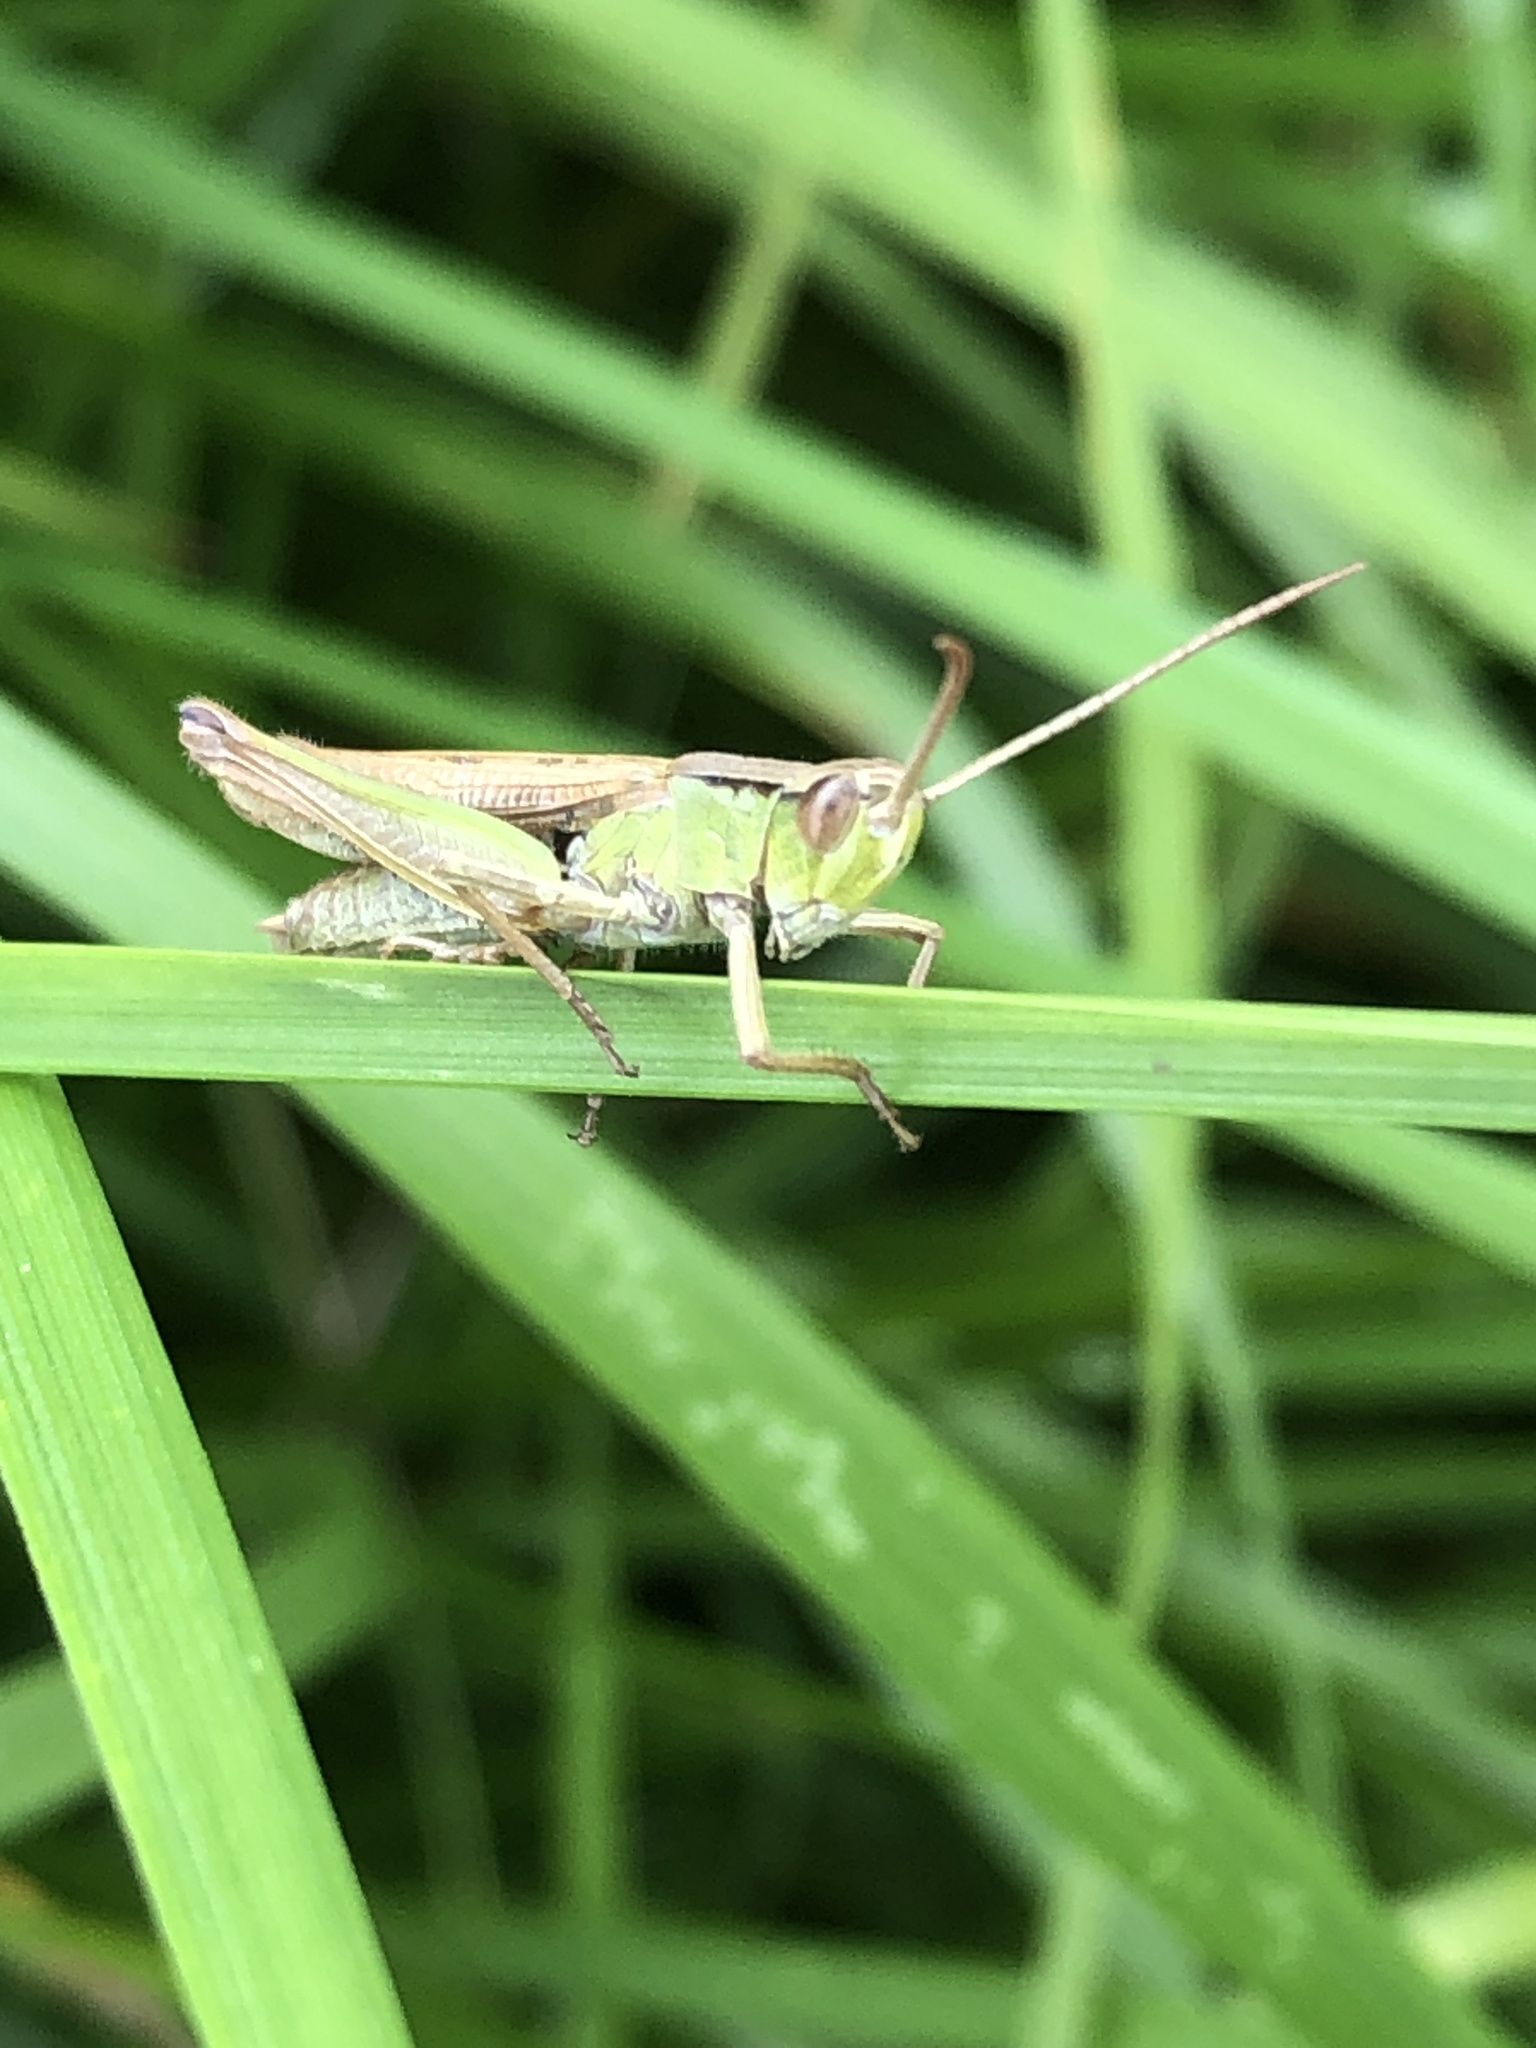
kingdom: Animalia
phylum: Arthropoda
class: Insecta
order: Orthoptera
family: Acrididae
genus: Chorthippus
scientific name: Chorthippus albomarginatus
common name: Lesser marsh grasshopper
